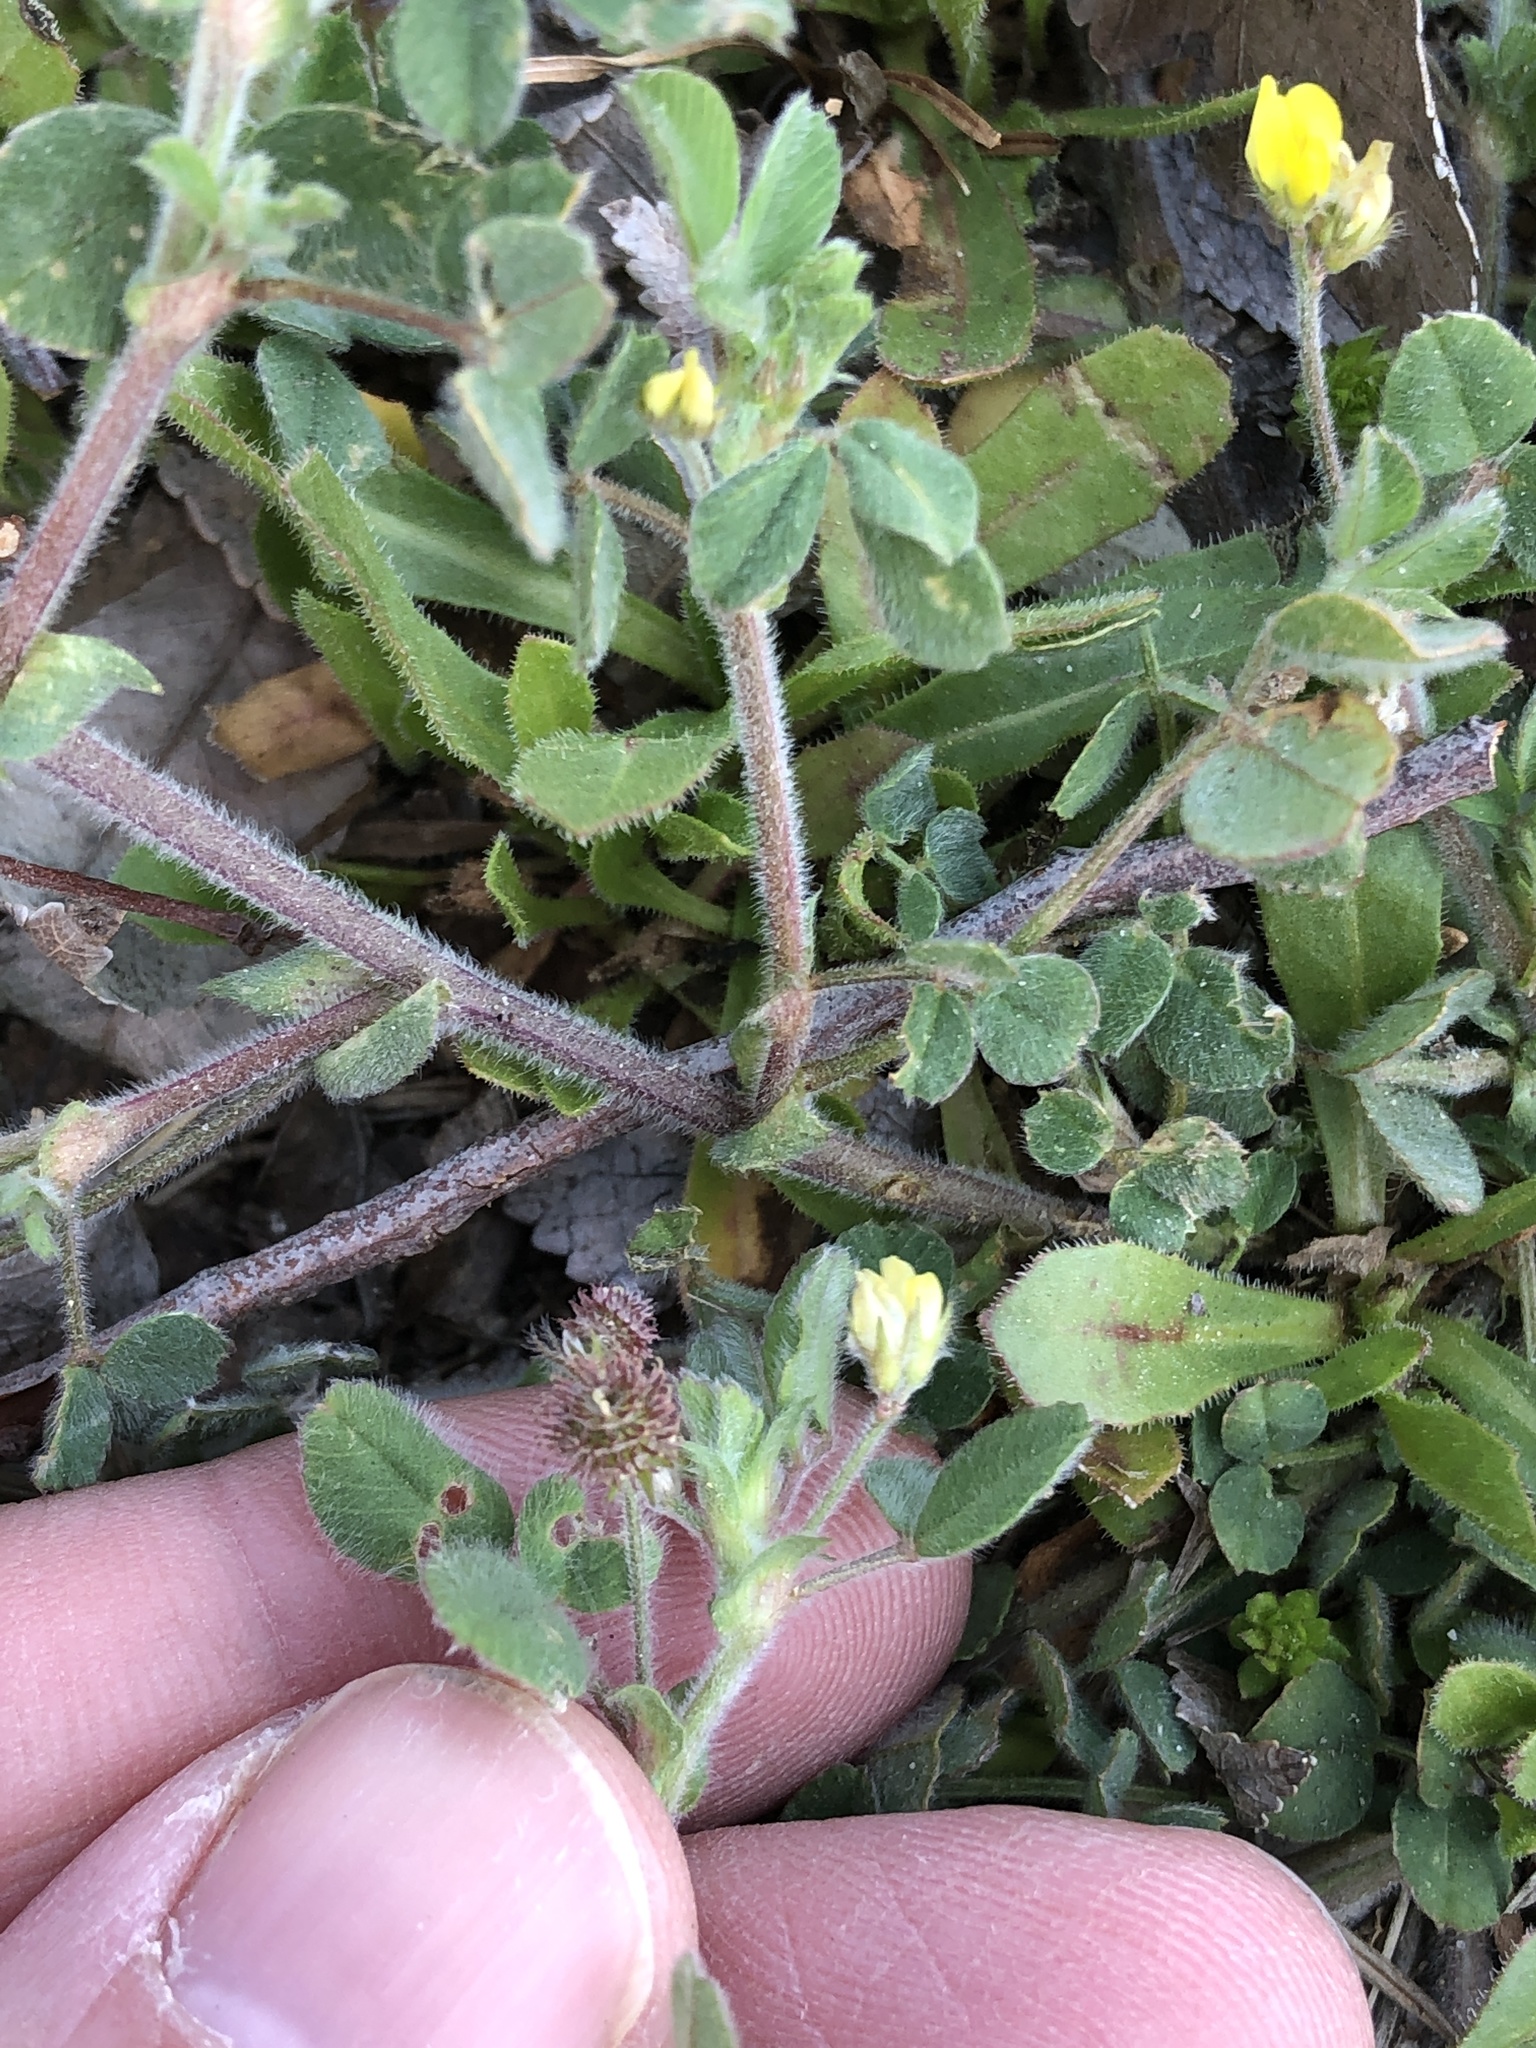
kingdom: Plantae
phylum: Tracheophyta
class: Magnoliopsida
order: Fabales
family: Fabaceae
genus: Medicago
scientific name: Medicago minima
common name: Little bur-clover
